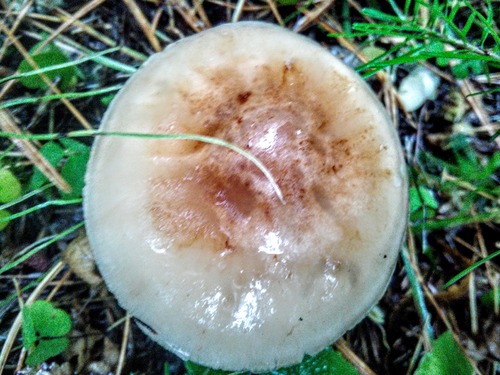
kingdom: Fungi
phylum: Basidiomycota
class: Agaricomycetes
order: Agaricales
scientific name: Agaricales
